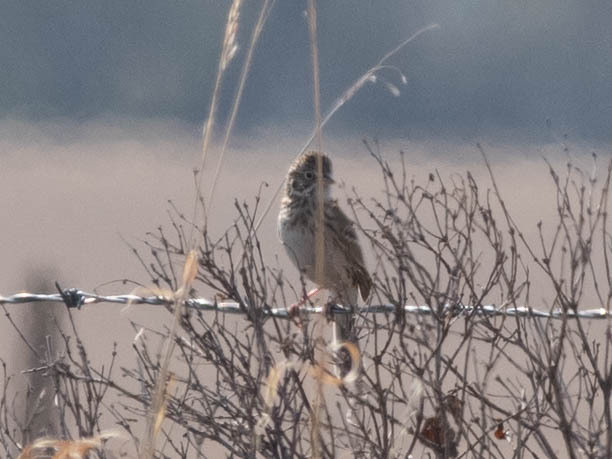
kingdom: Animalia
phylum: Chordata
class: Aves
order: Passeriformes
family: Passerellidae
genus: Pooecetes
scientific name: Pooecetes gramineus
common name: Vesper sparrow
